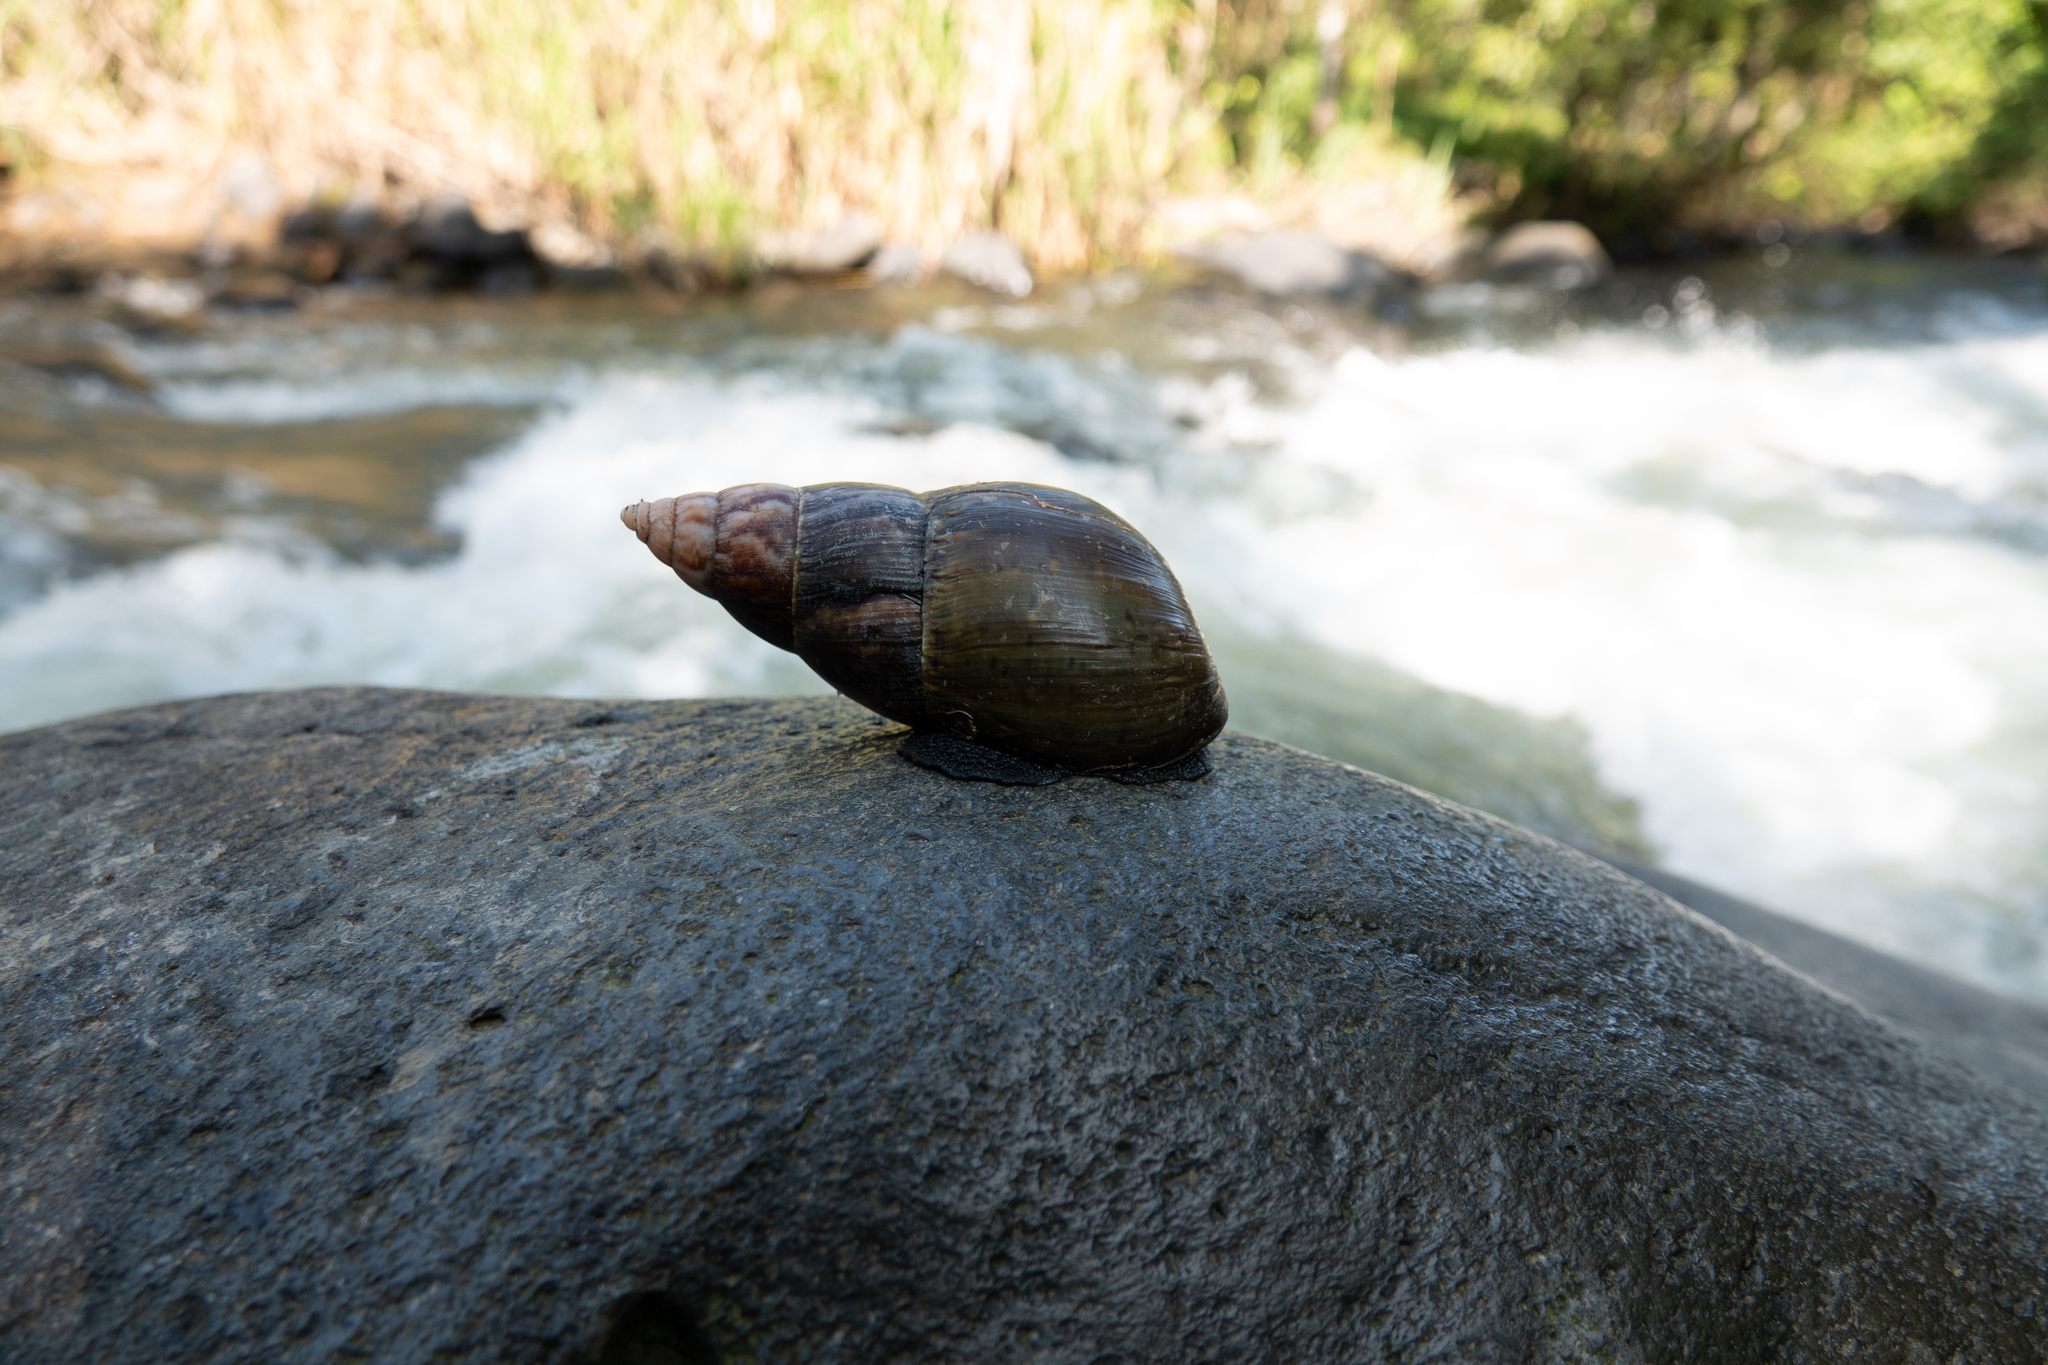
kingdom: Animalia
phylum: Mollusca
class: Gastropoda
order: Stylommatophora
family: Achatinidae
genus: Lissachatina
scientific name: Lissachatina fulica
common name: Giant african snail
